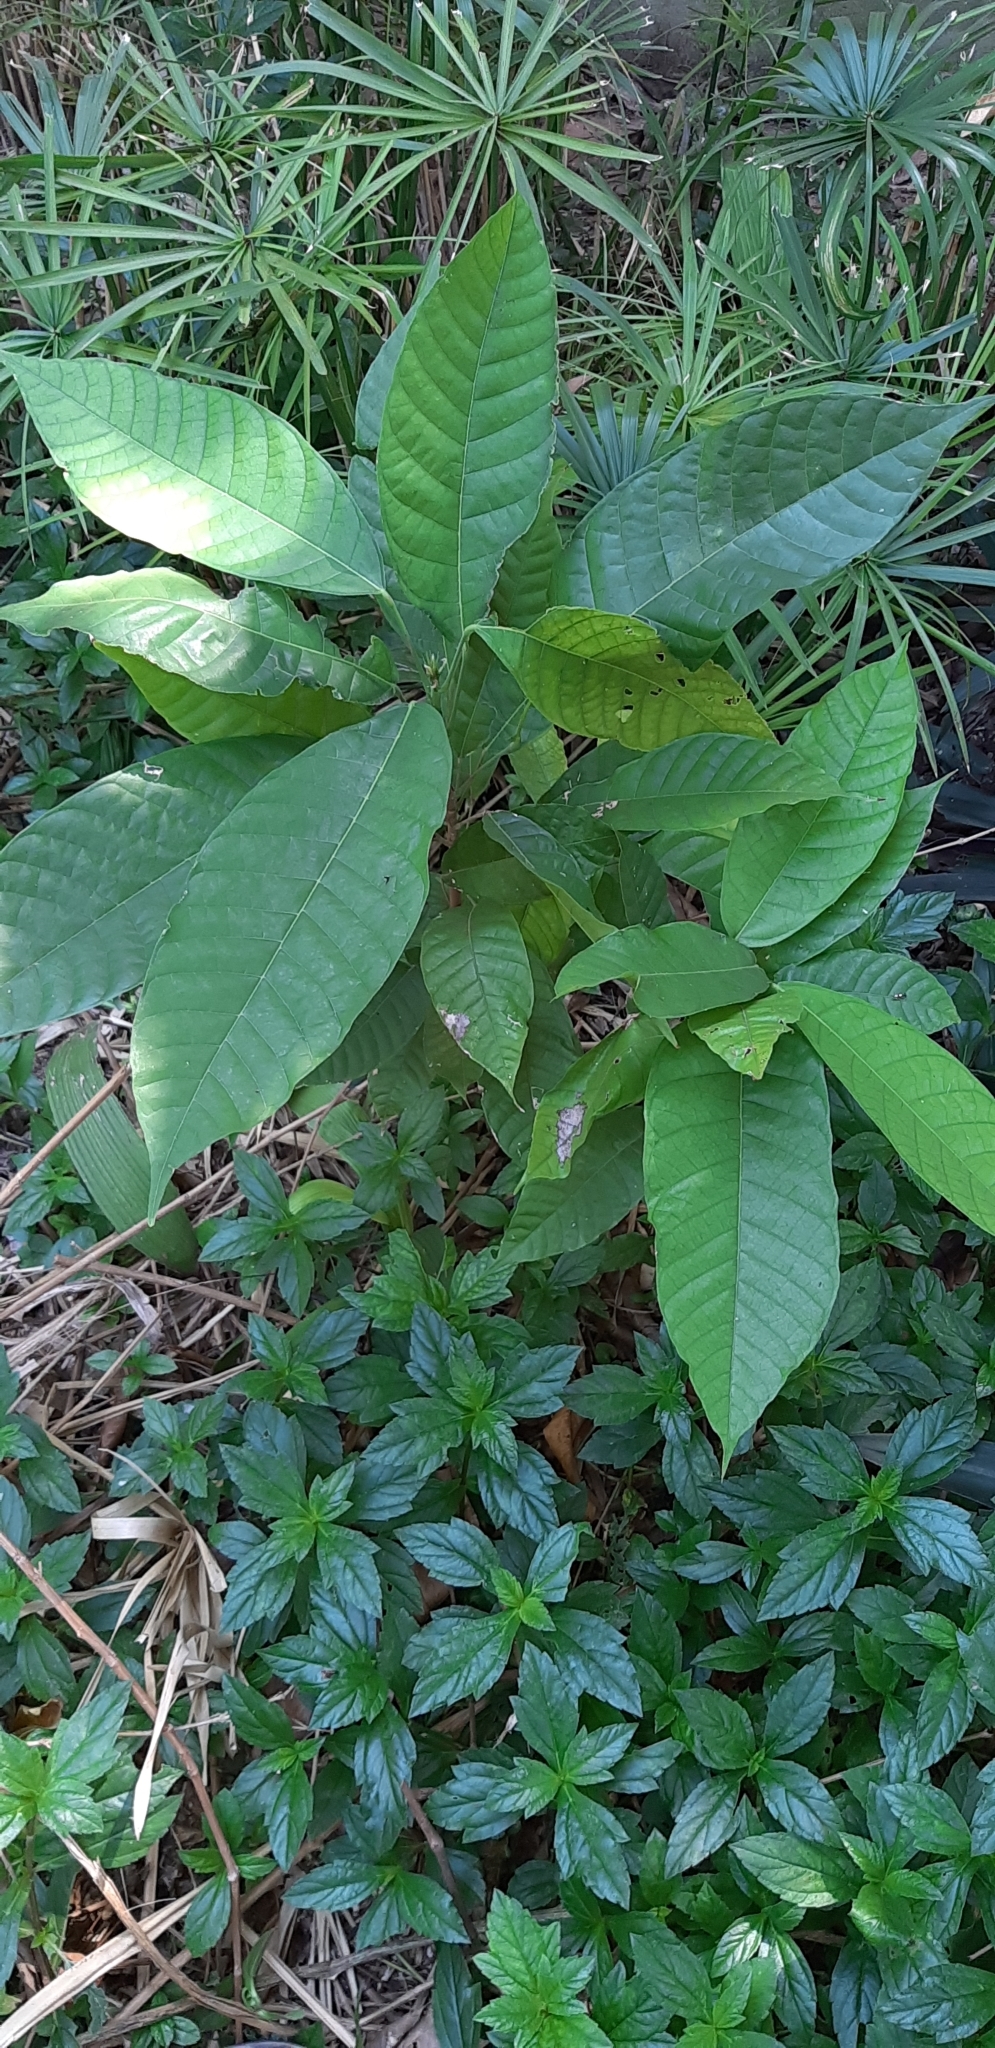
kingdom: Plantae
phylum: Tracheophyta
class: Magnoliopsida
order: Malvales
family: Malvaceae
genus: Theobroma
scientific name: Theobroma cacao
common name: Cocoa
